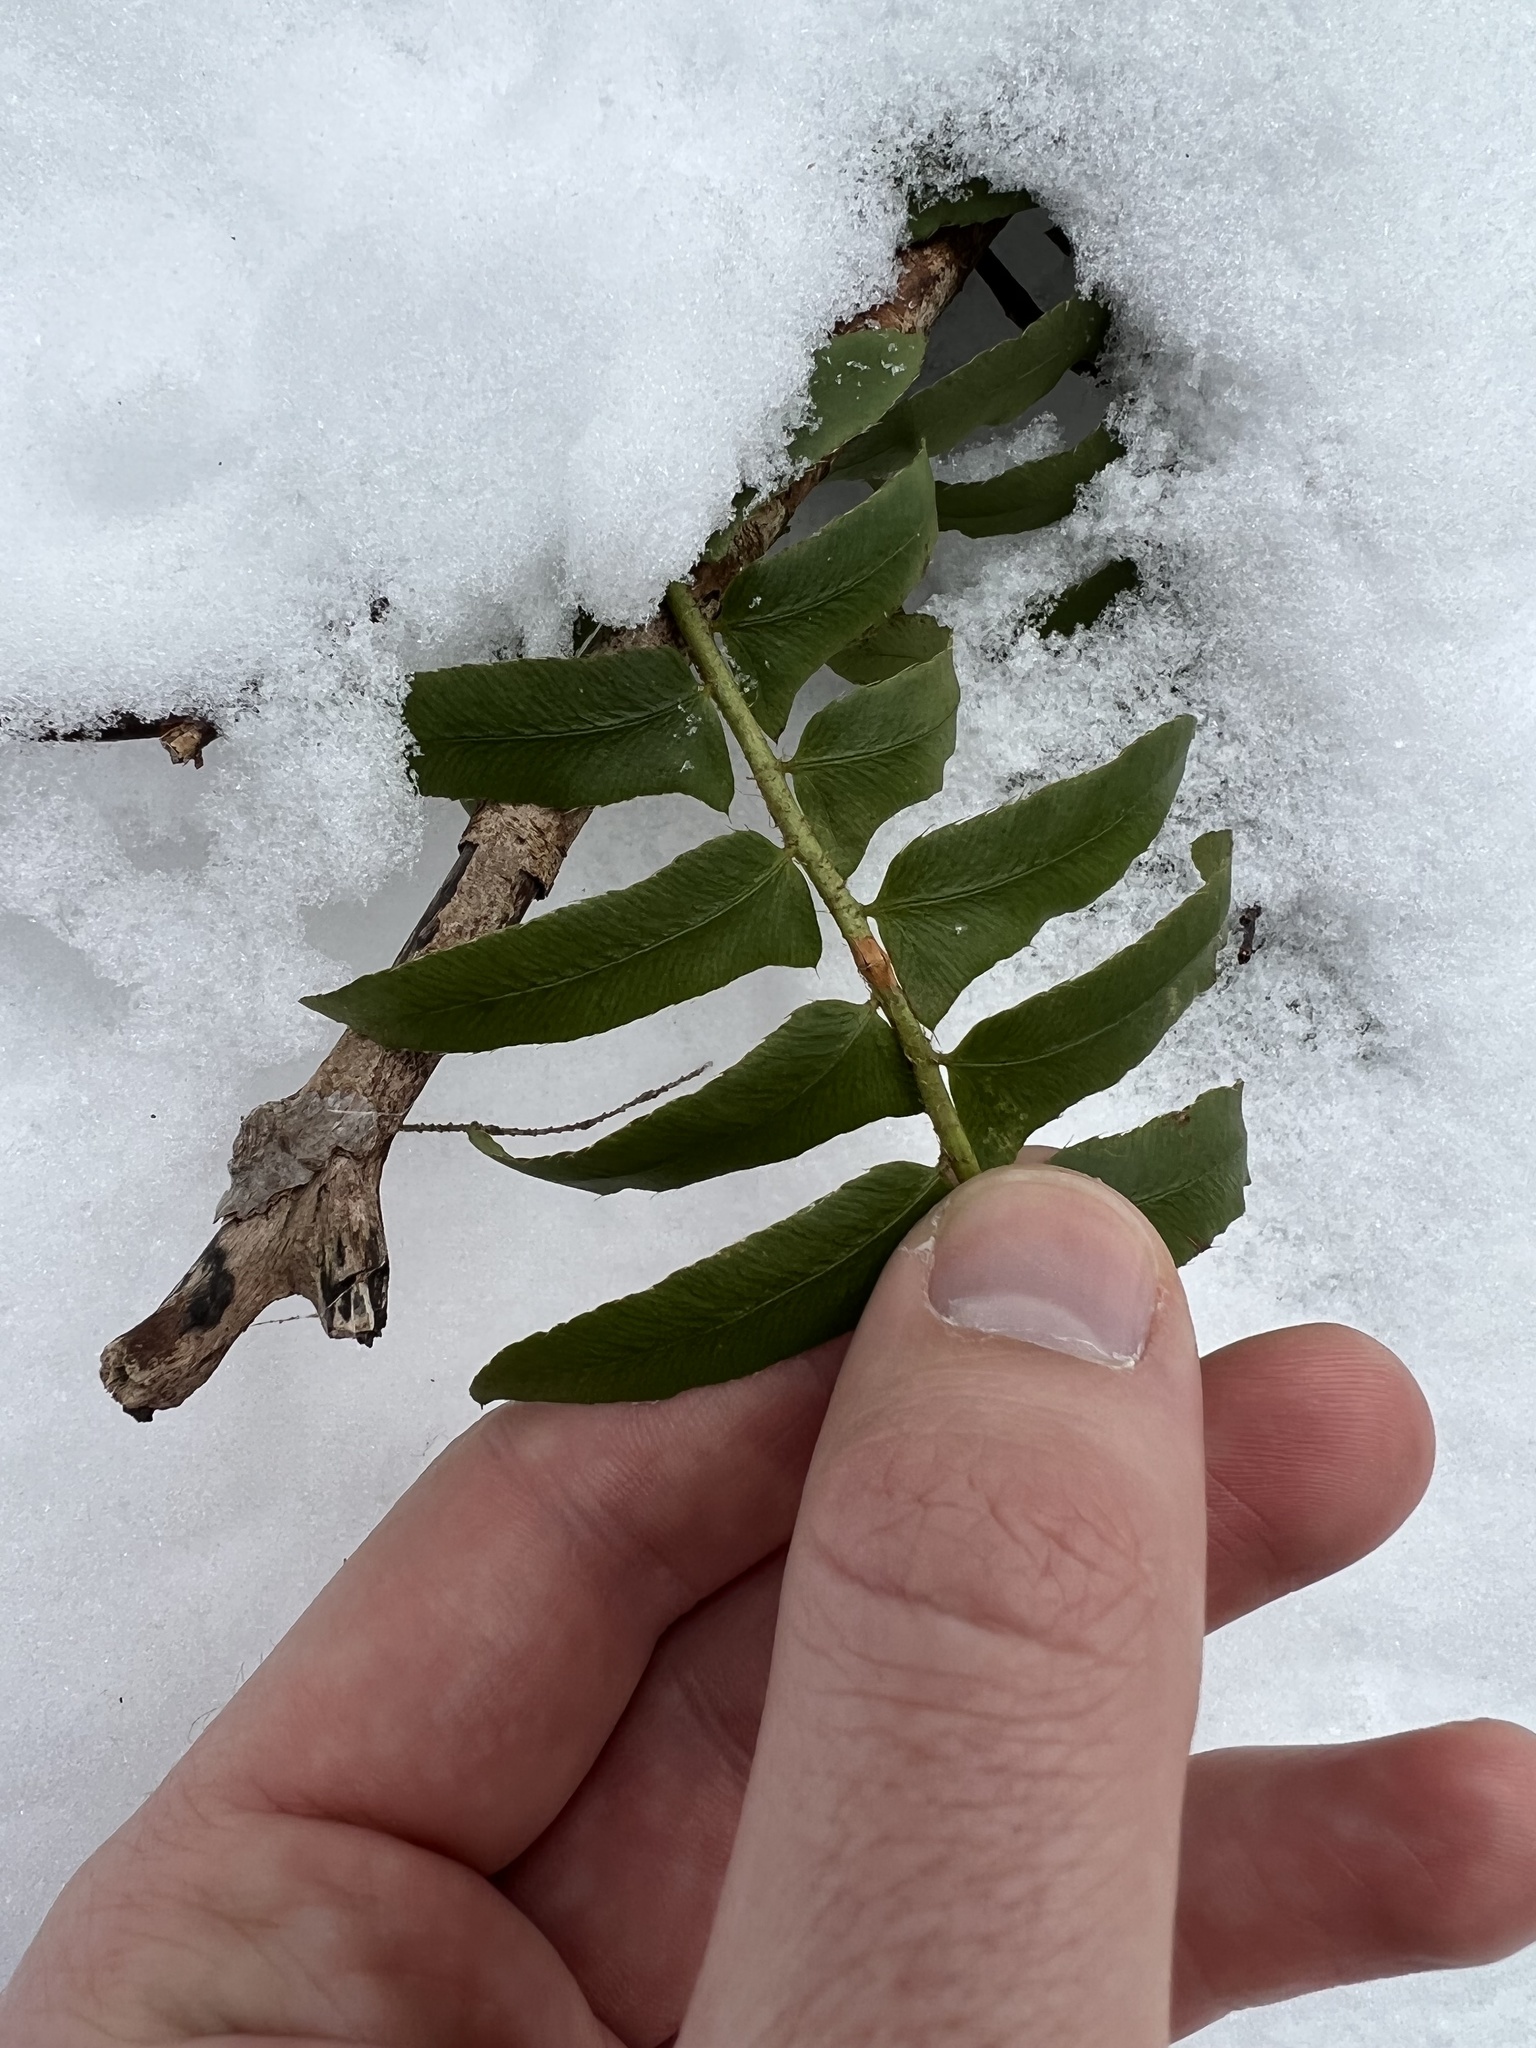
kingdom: Plantae
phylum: Tracheophyta
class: Polypodiopsida
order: Polypodiales
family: Dryopteridaceae
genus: Polystichum
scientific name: Polystichum acrostichoides
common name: Christmas fern
